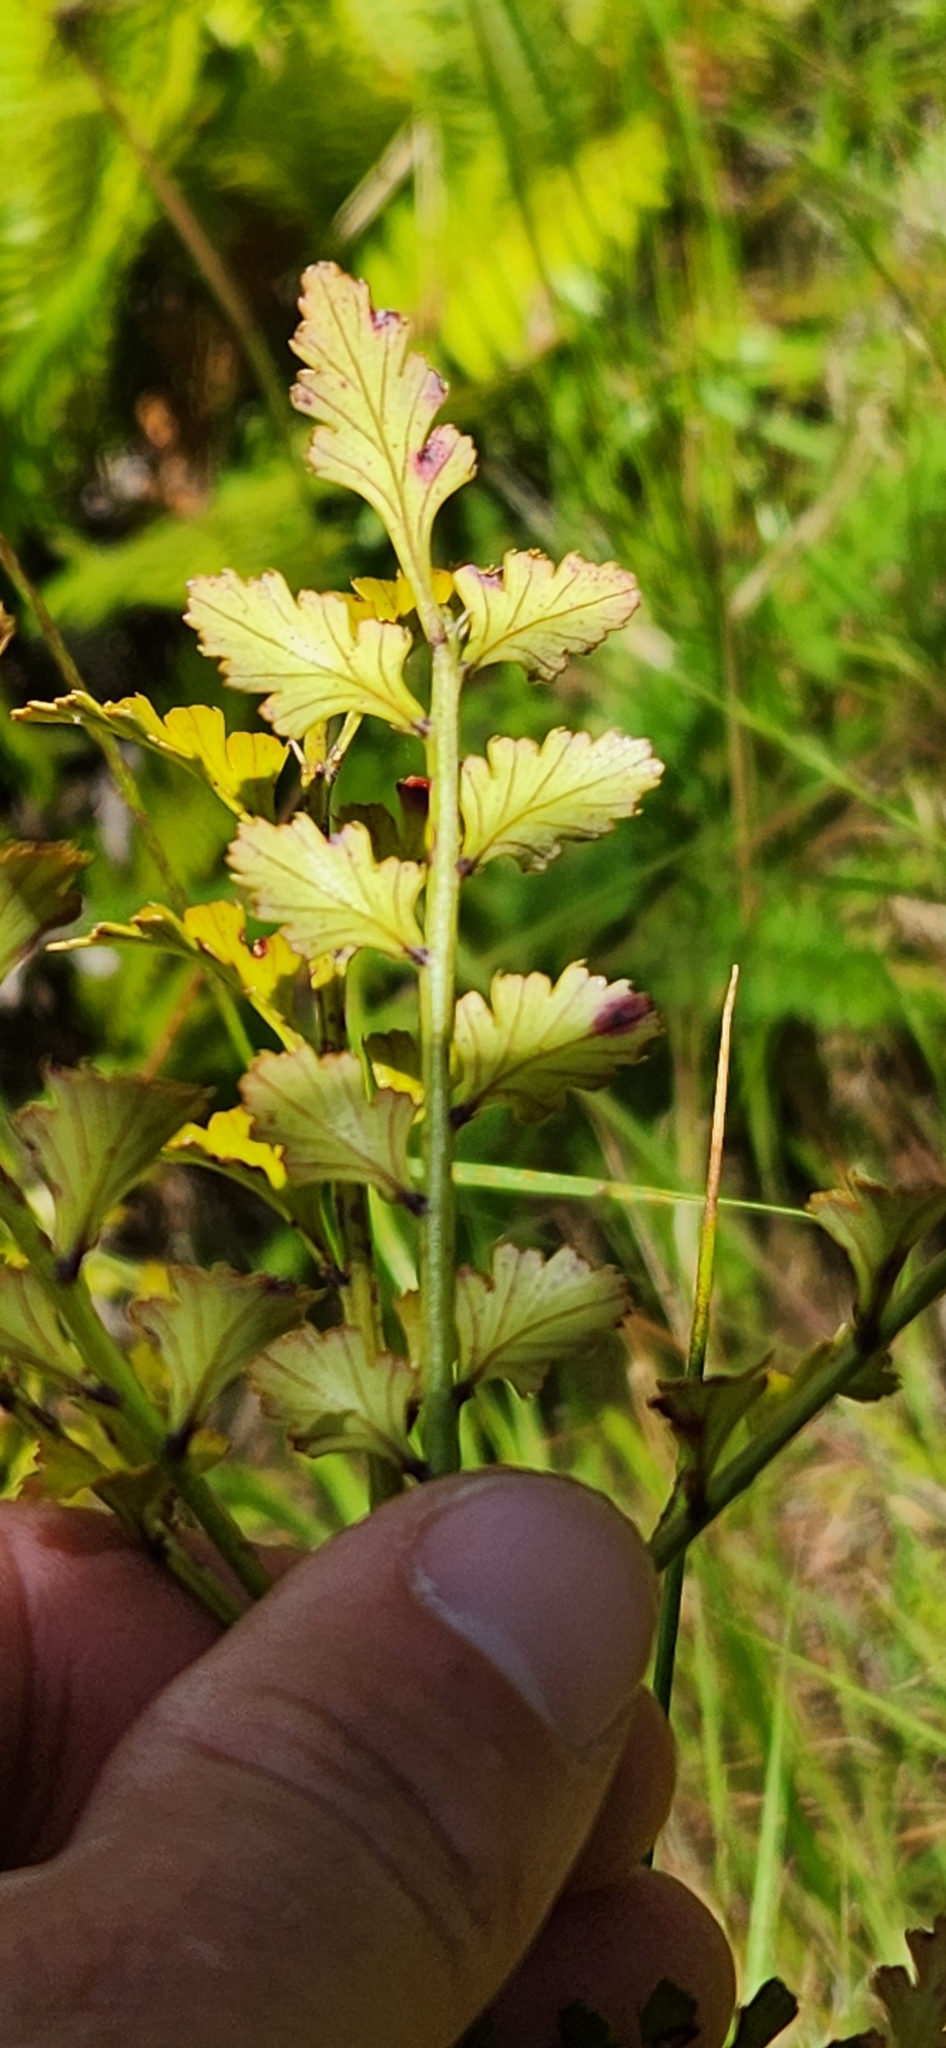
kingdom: Plantae
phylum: Tracheophyta
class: Pinopsida
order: Pinales
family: Phyllocladaceae
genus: Phyllocladus
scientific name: Phyllocladus trichomanoides
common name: Celery pine
